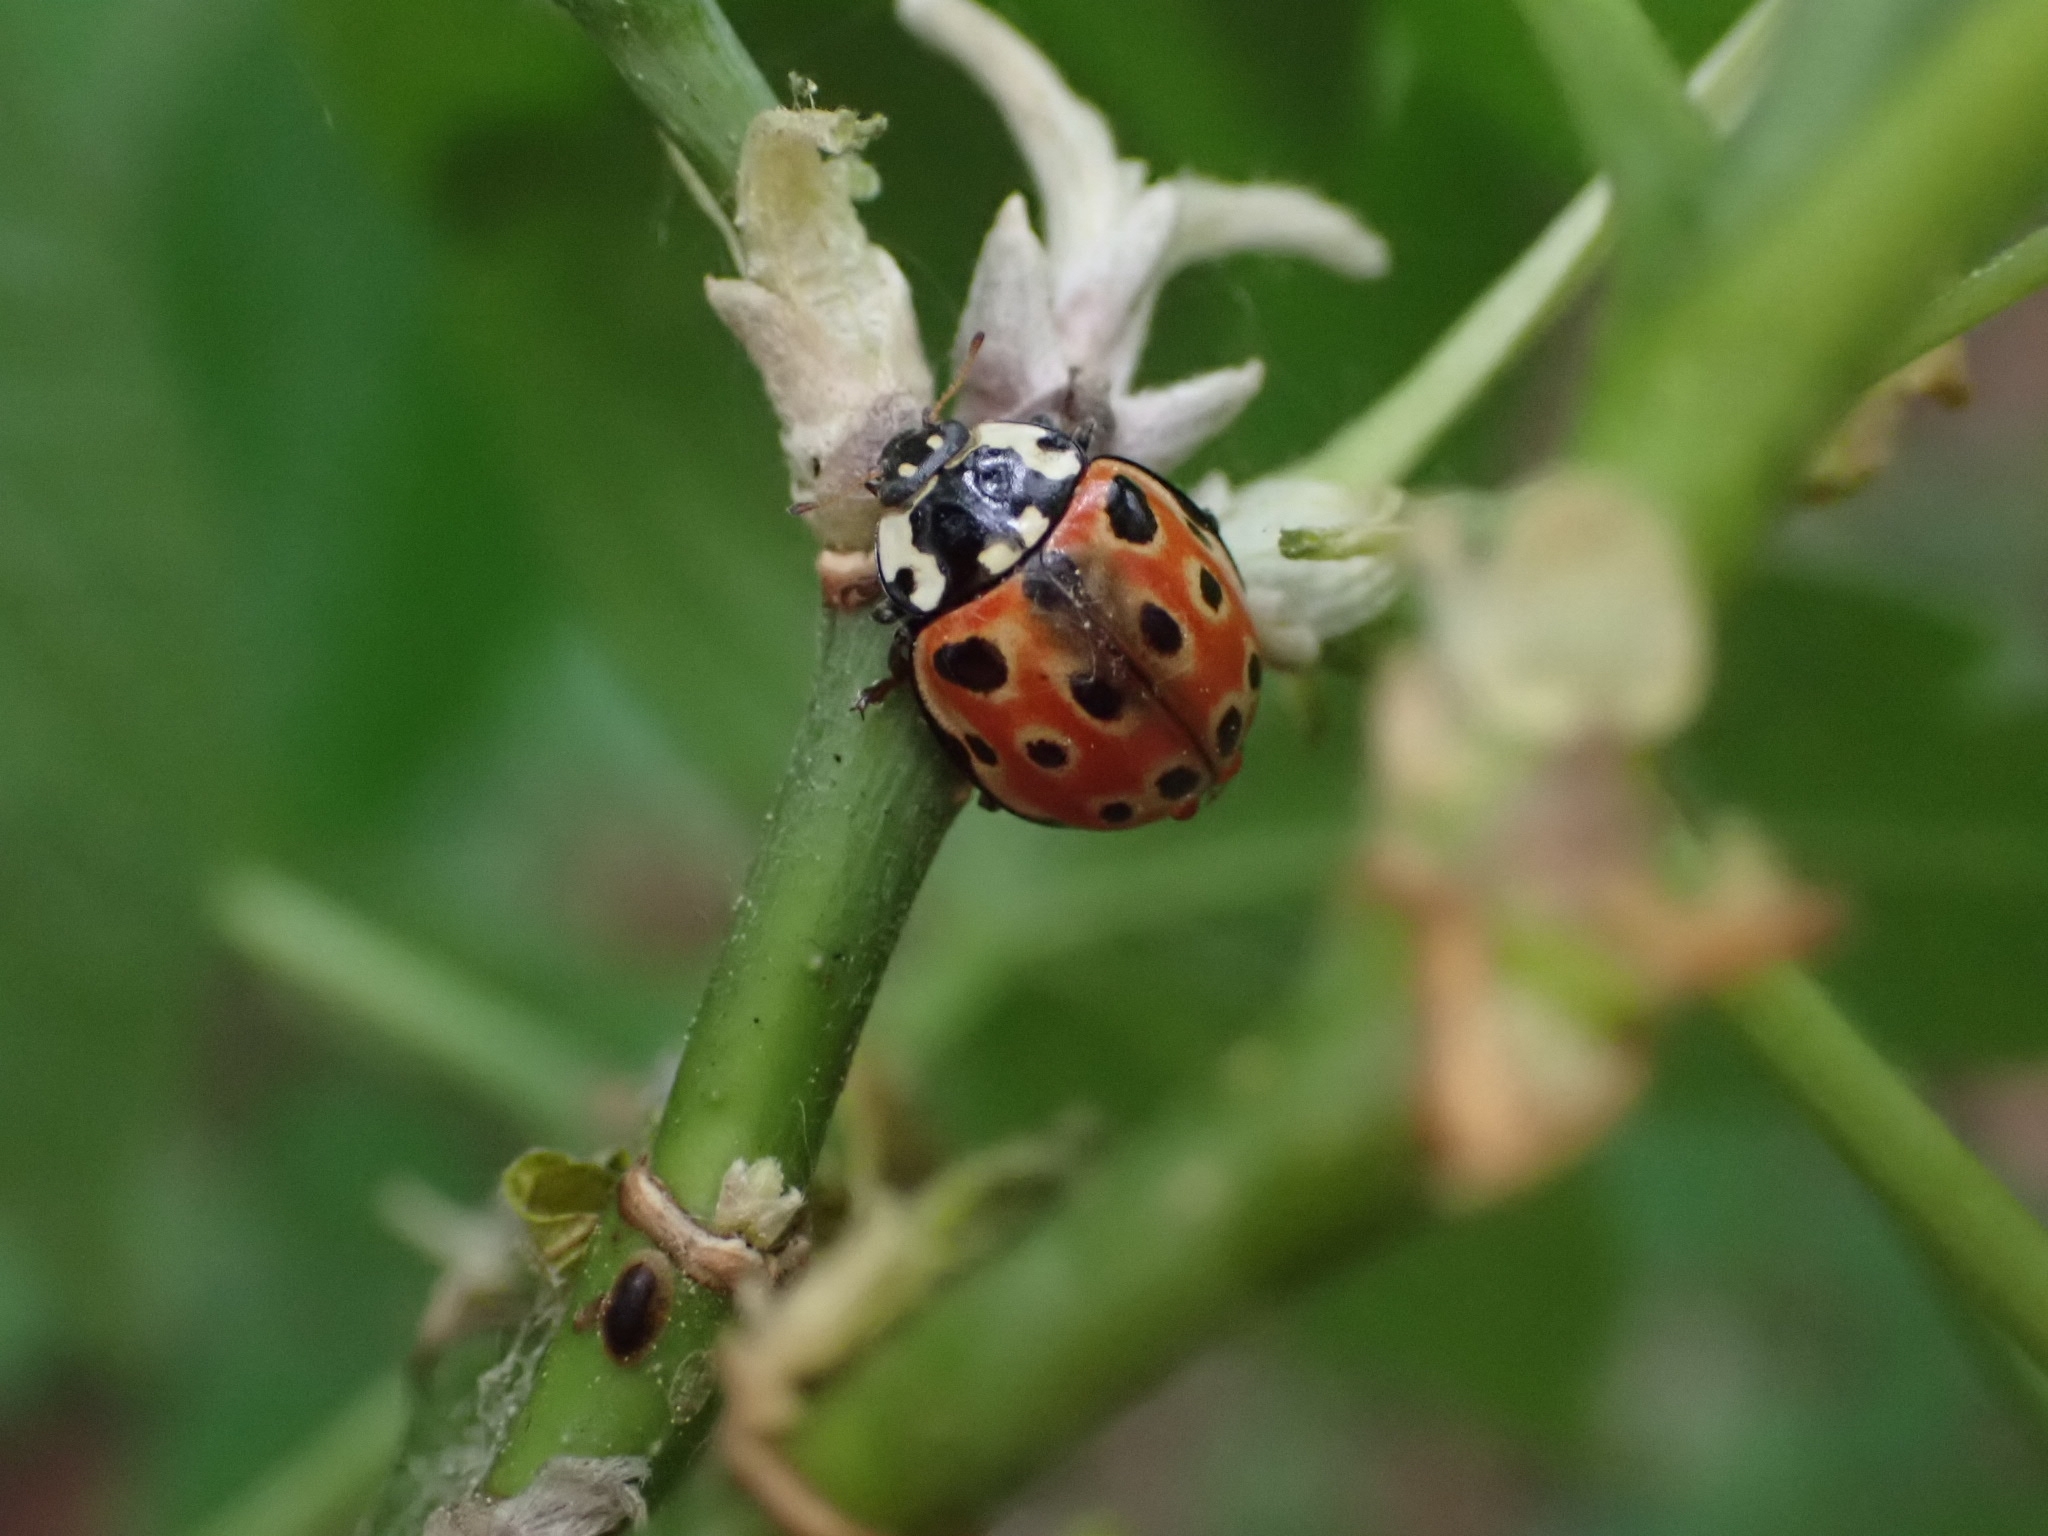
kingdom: Animalia
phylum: Arthropoda
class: Insecta
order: Coleoptera
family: Coccinellidae
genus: Anatis
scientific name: Anatis ocellata
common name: Eyed ladybird
